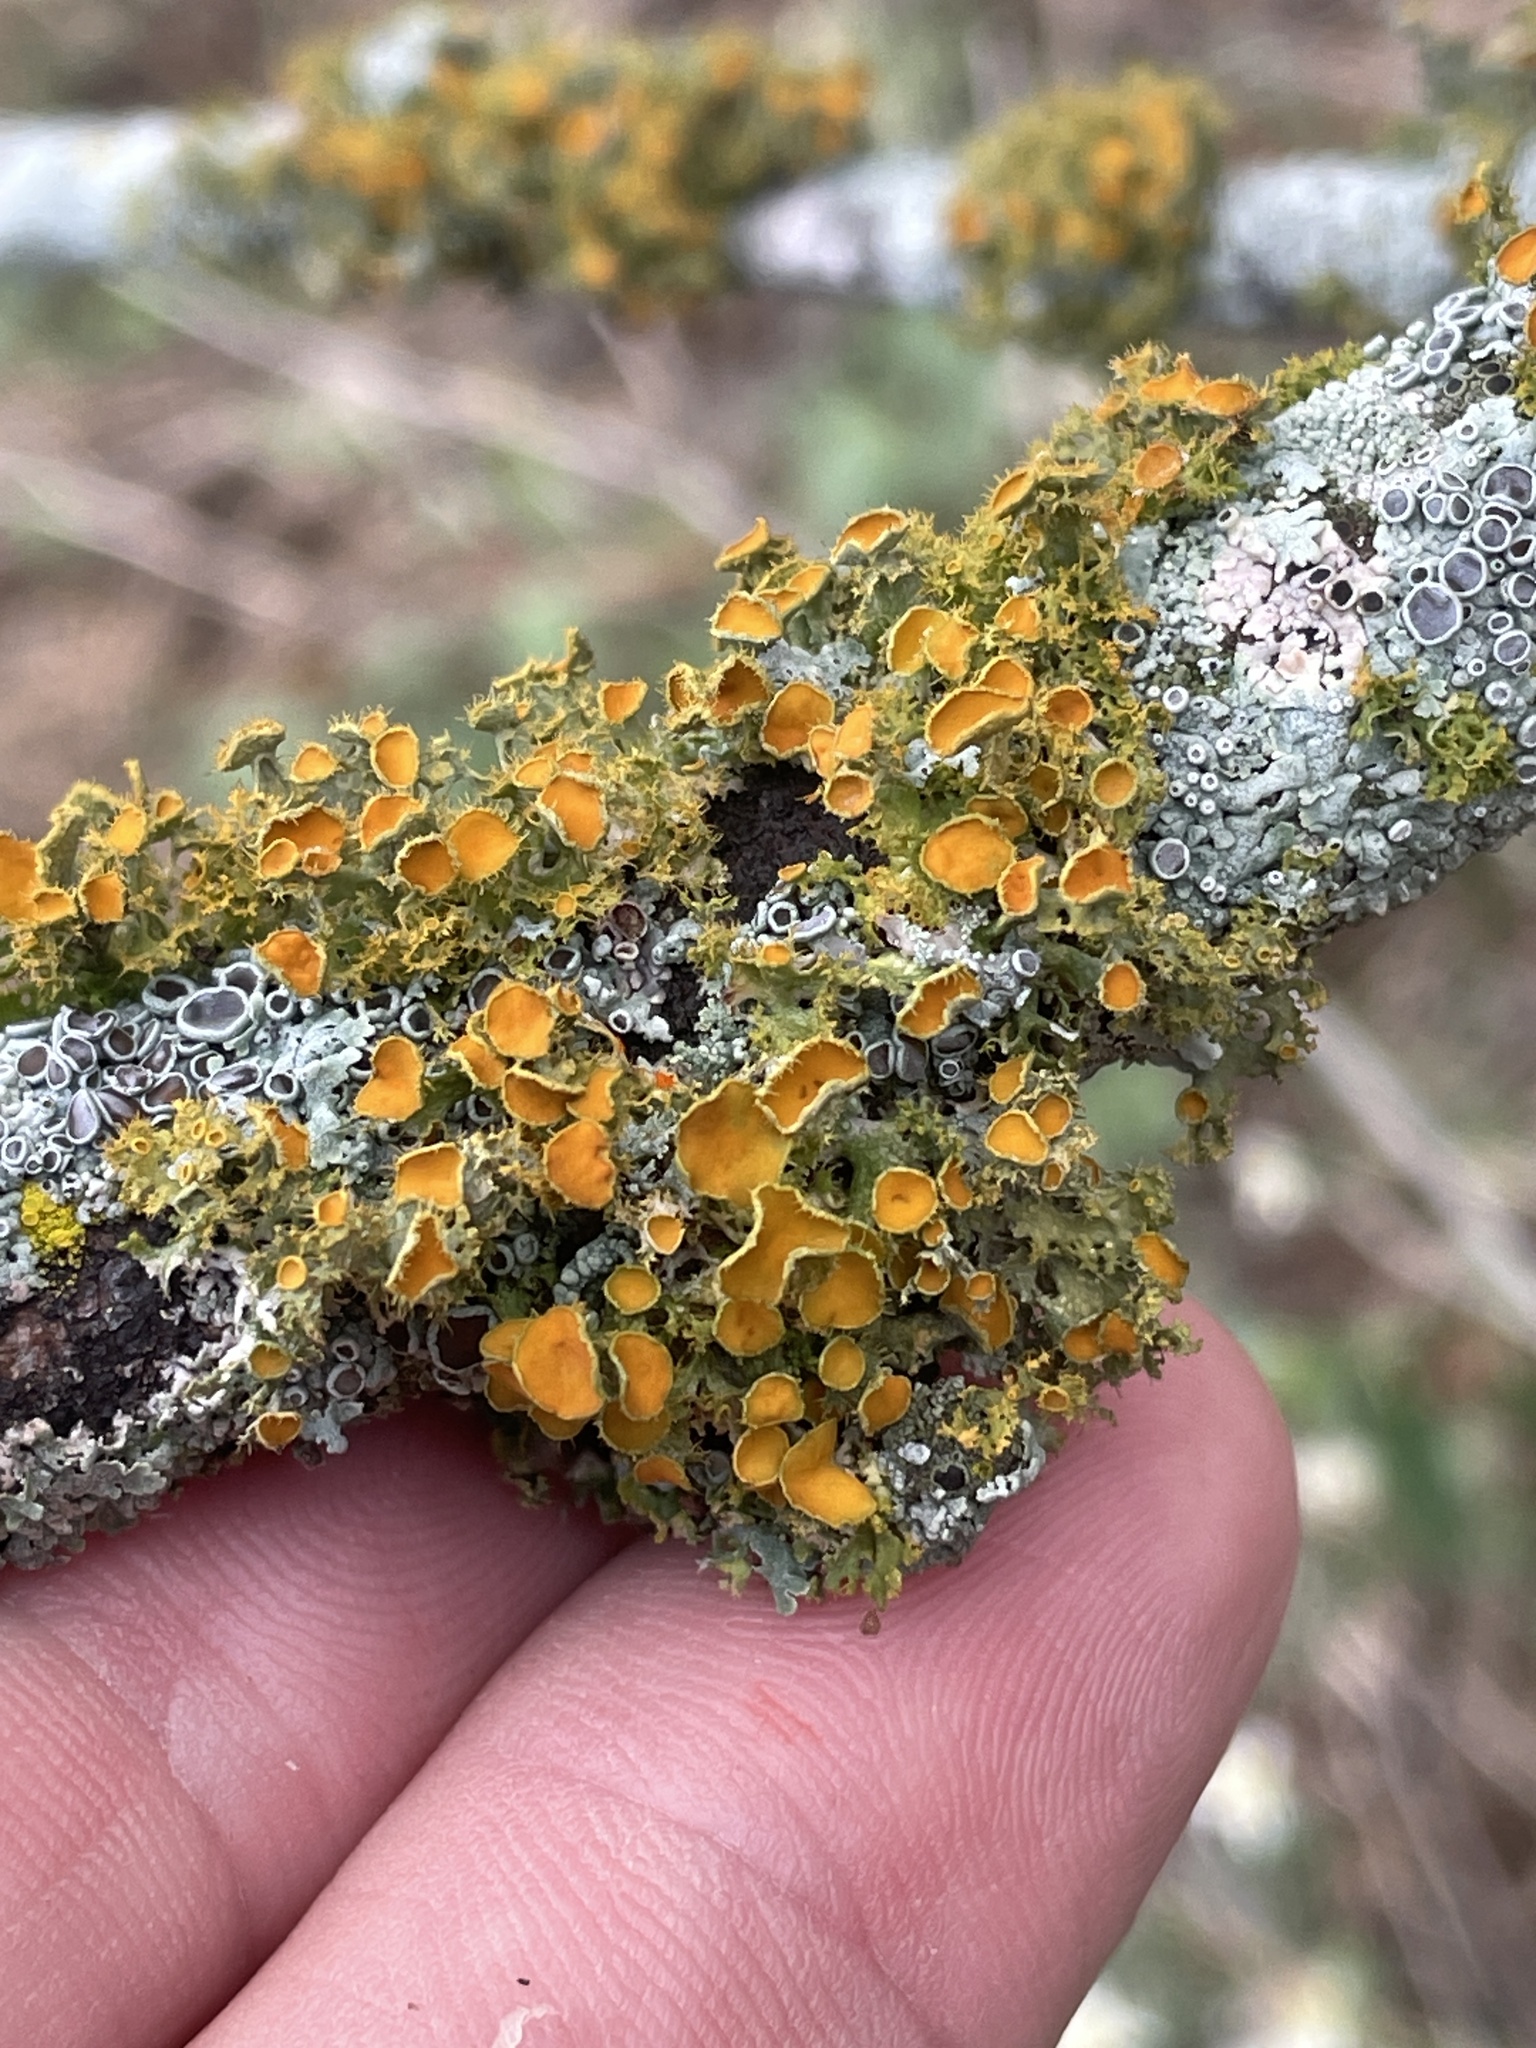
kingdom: Fungi
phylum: Ascomycota
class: Lecanoromycetes
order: Teloschistales
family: Teloschistaceae
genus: Niorma
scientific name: Niorma chrysophthalma
